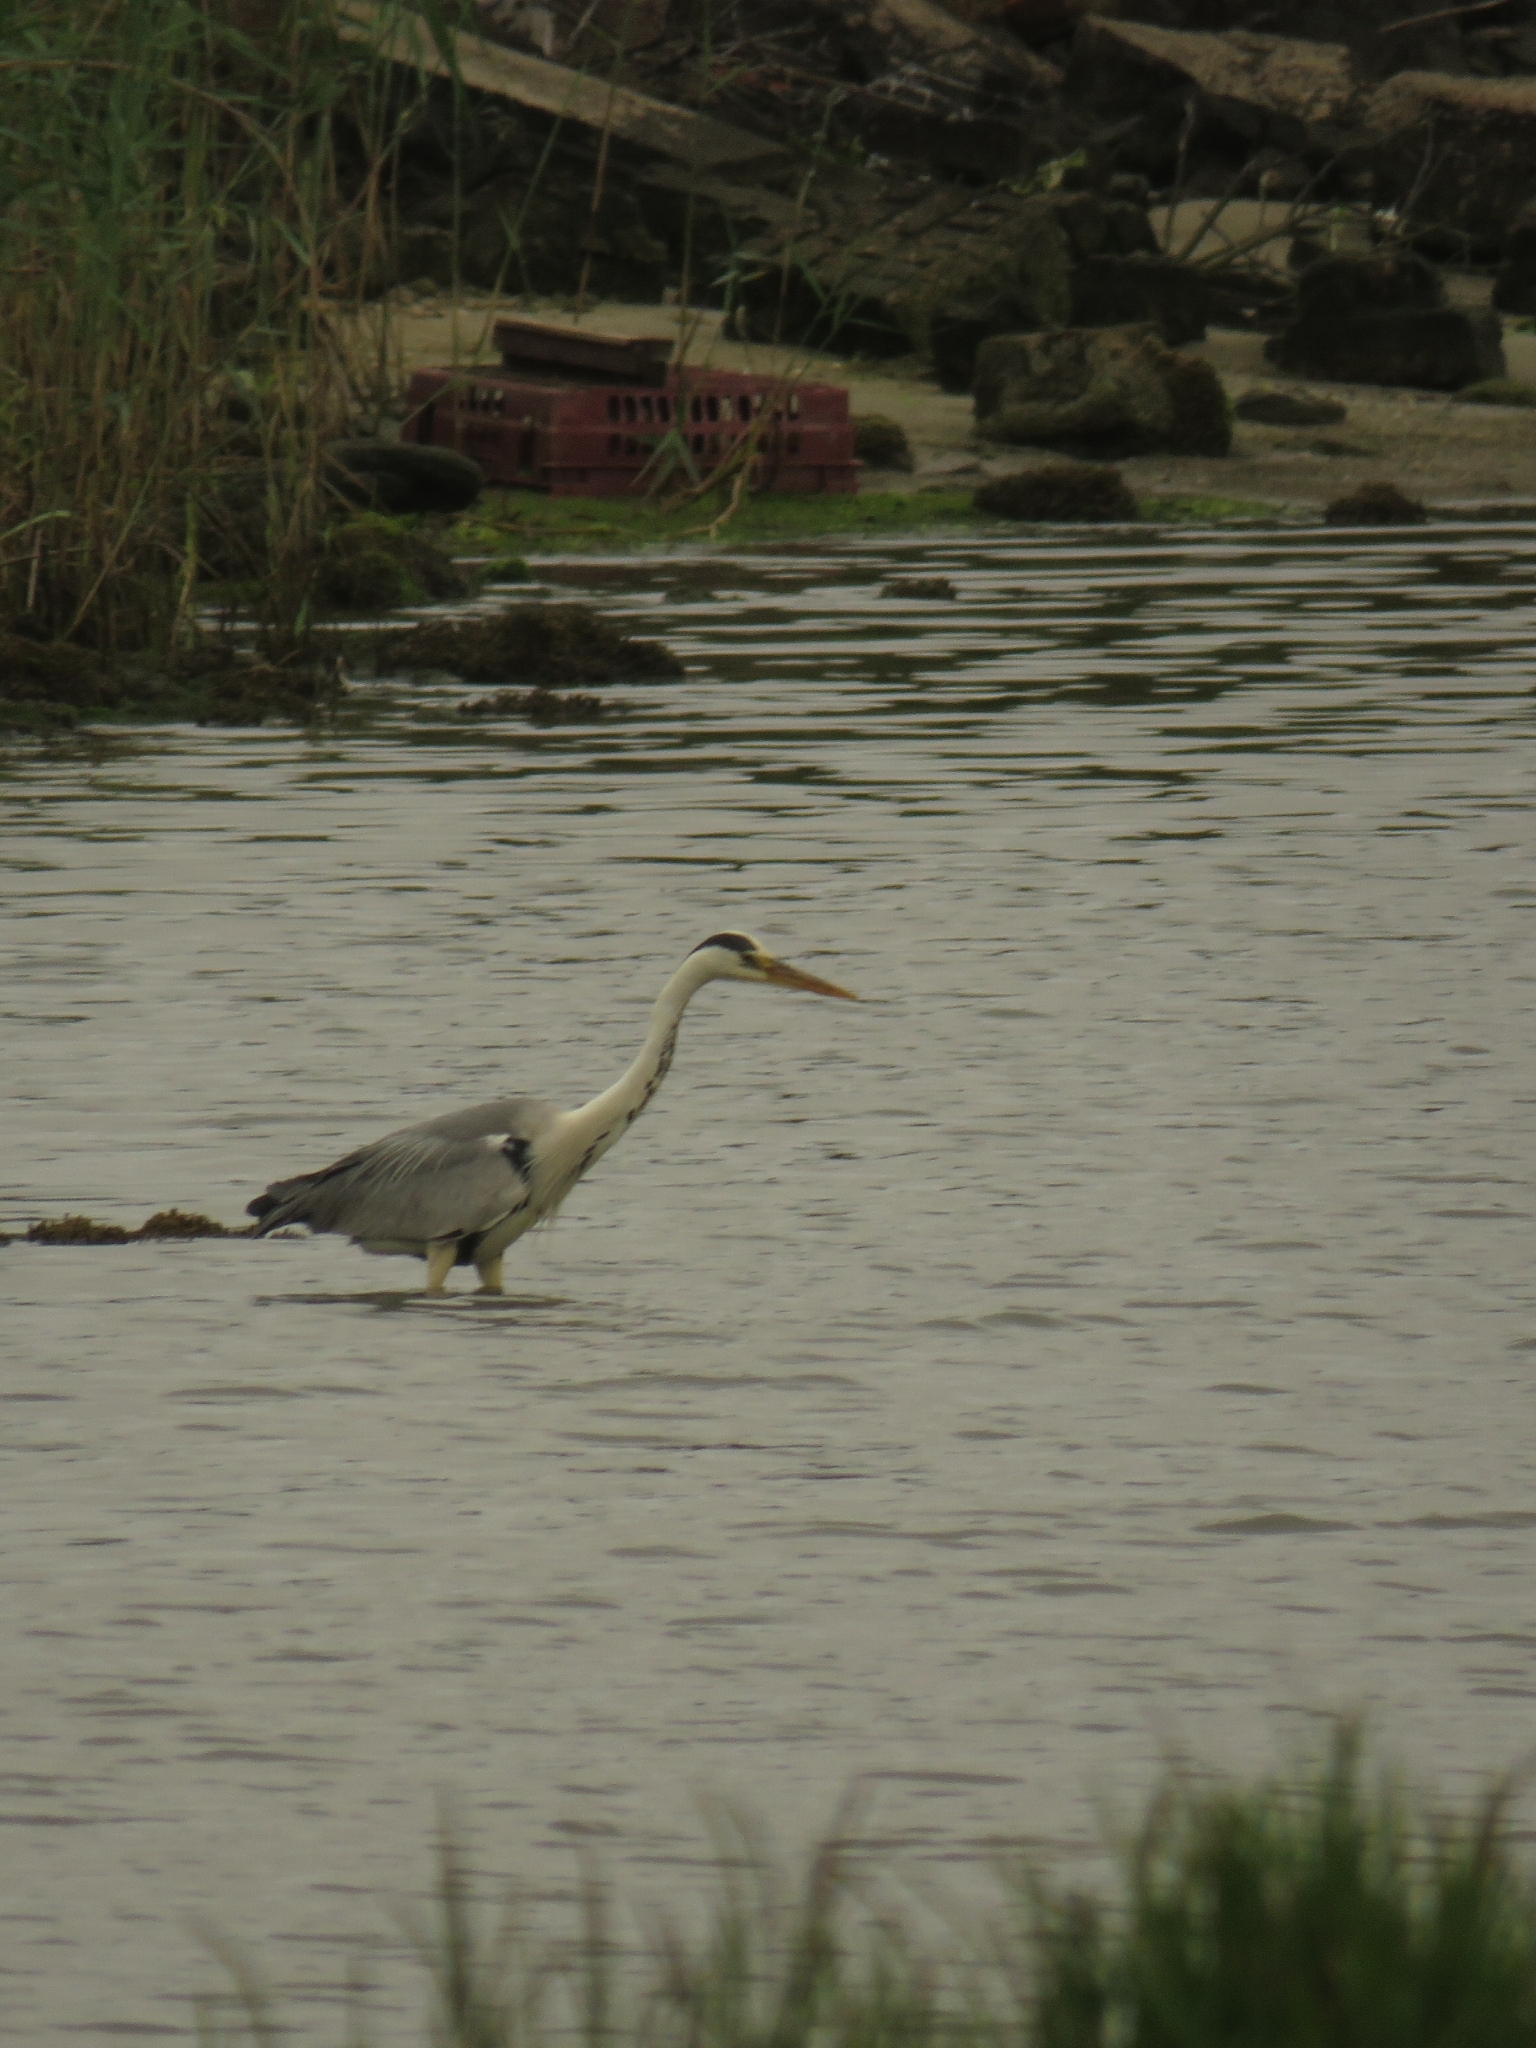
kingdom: Animalia
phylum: Chordata
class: Aves
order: Pelecaniformes
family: Ardeidae
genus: Ardea
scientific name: Ardea cinerea
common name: Grey heron
